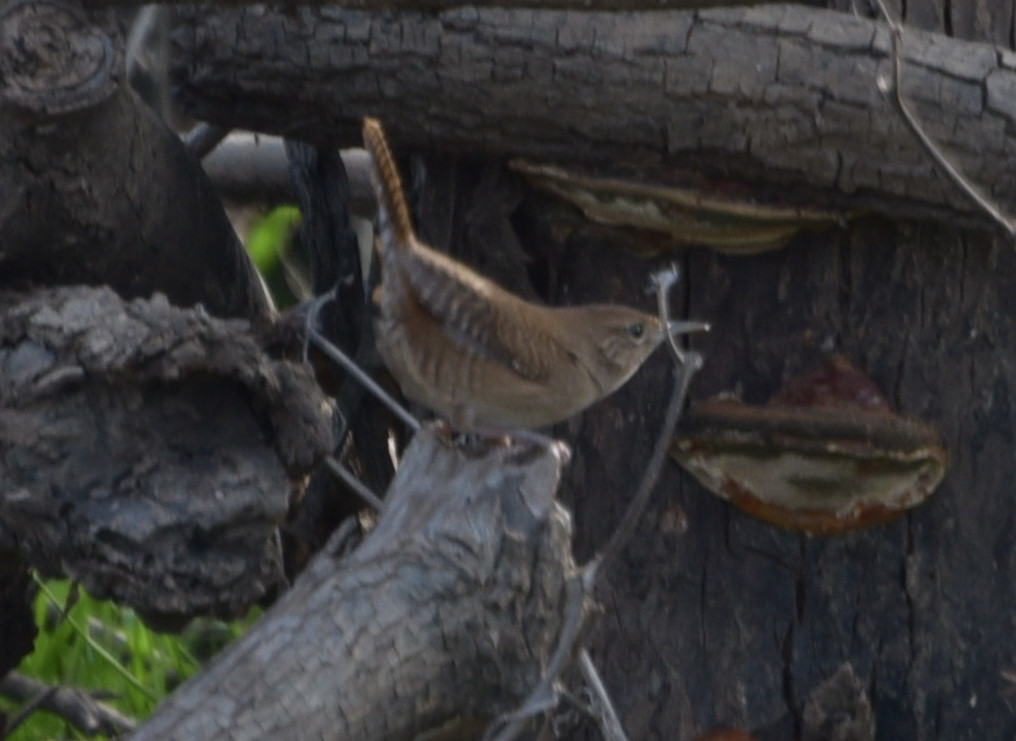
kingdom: Animalia
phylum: Chordata
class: Aves
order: Passeriformes
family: Troglodytidae
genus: Troglodytes
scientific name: Troglodytes aedon
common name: House wren
